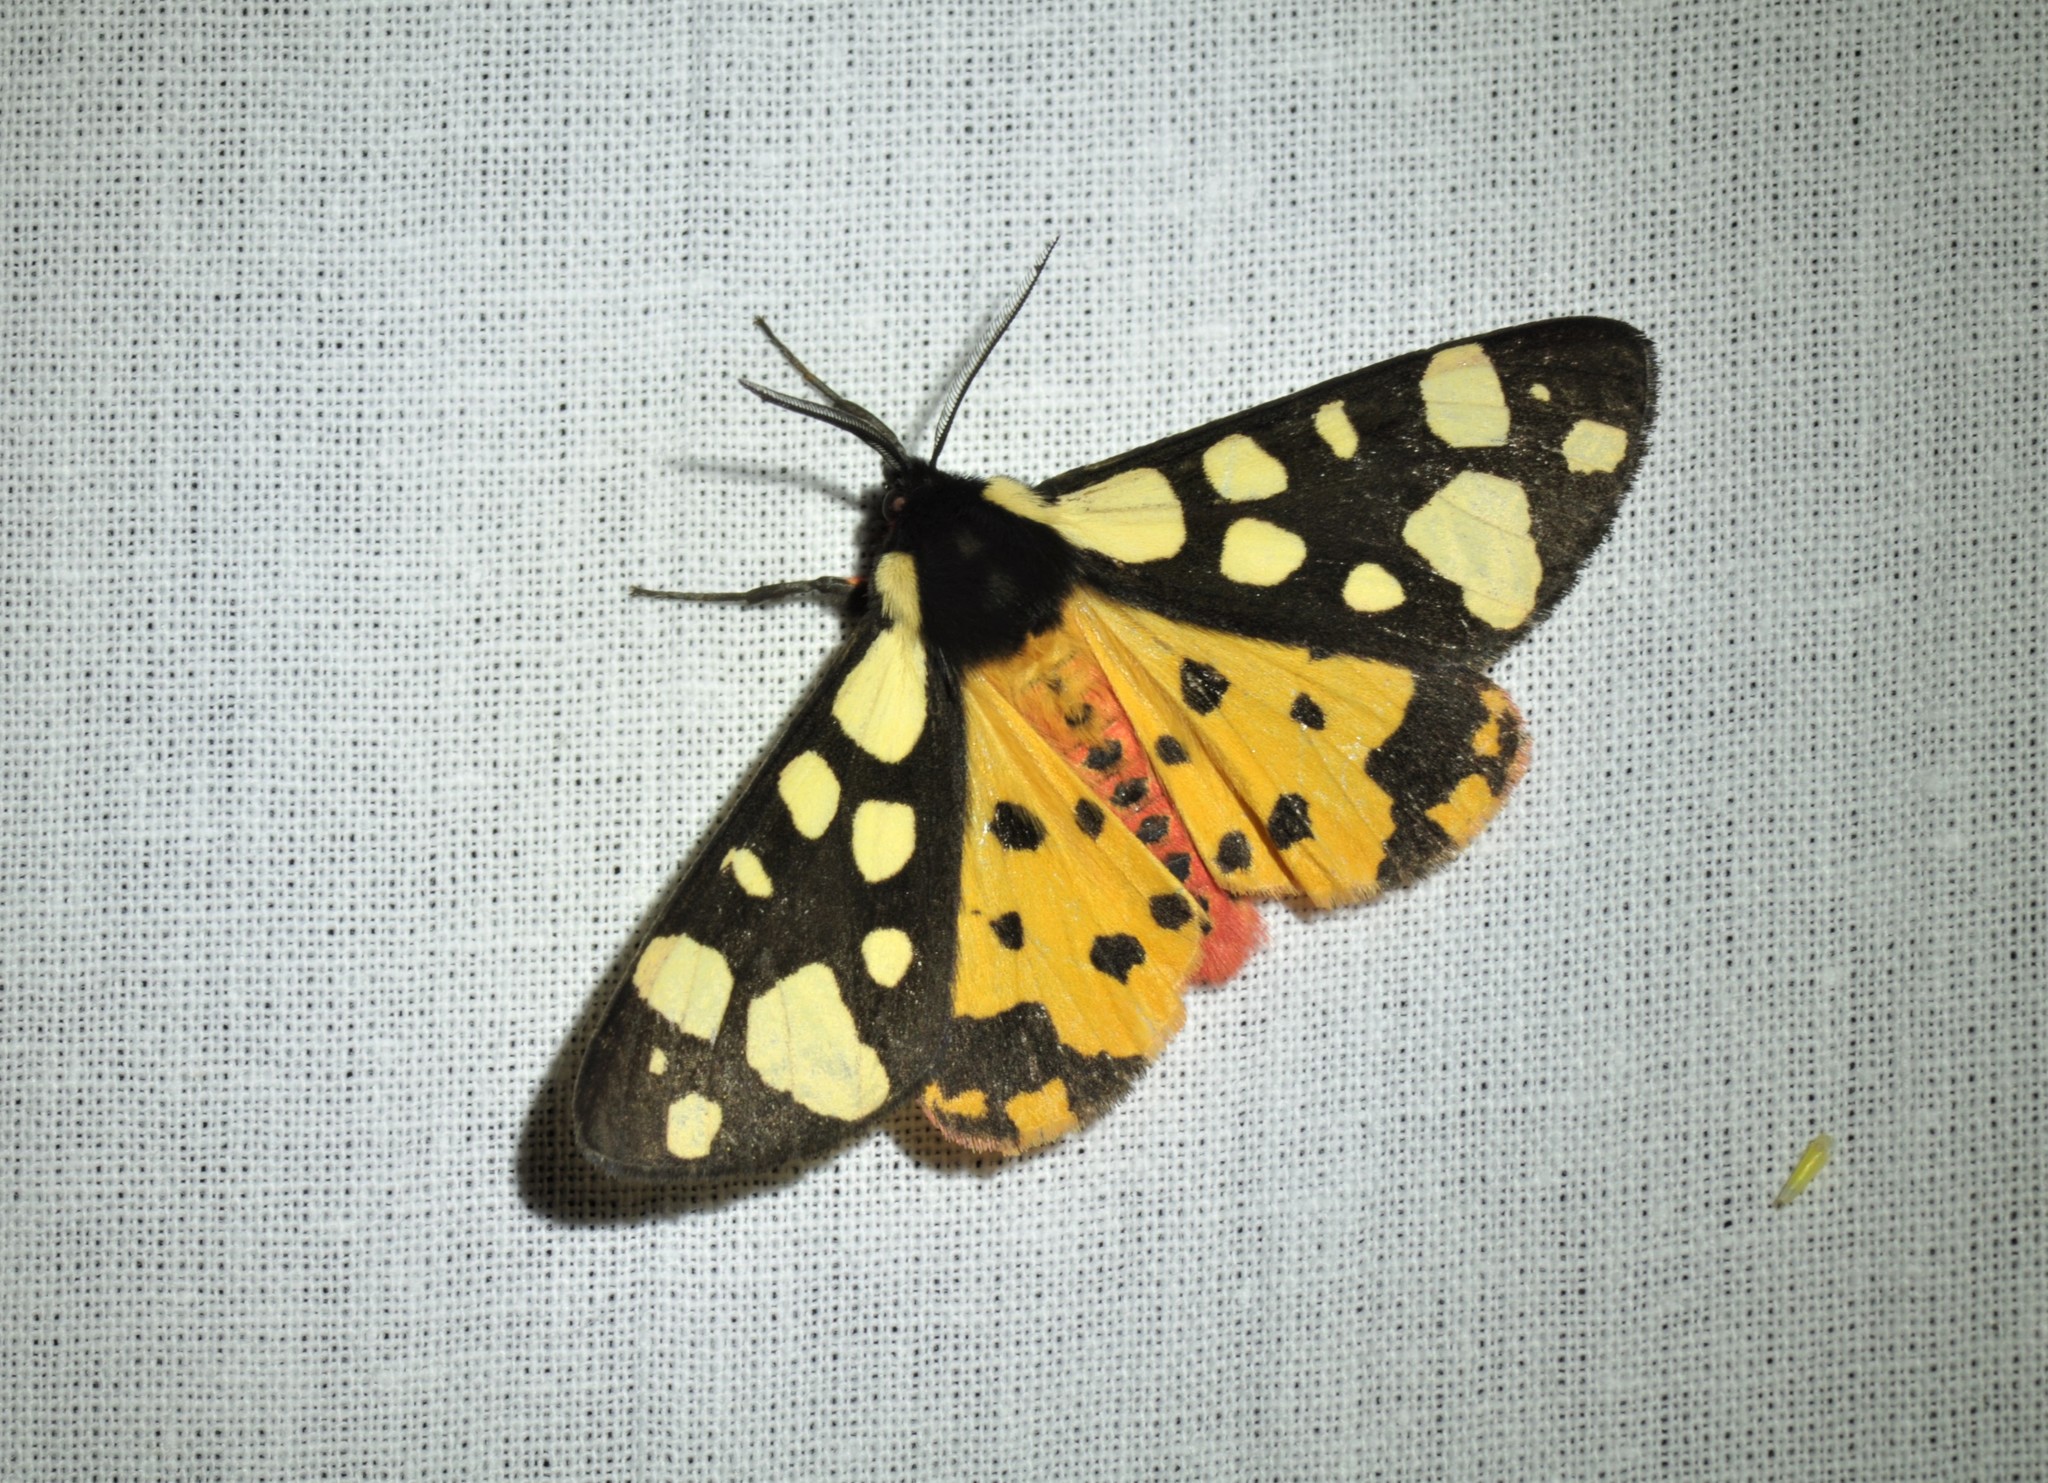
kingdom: Animalia
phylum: Arthropoda
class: Insecta
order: Lepidoptera
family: Erebidae
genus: Epicallia
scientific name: Epicallia villica
